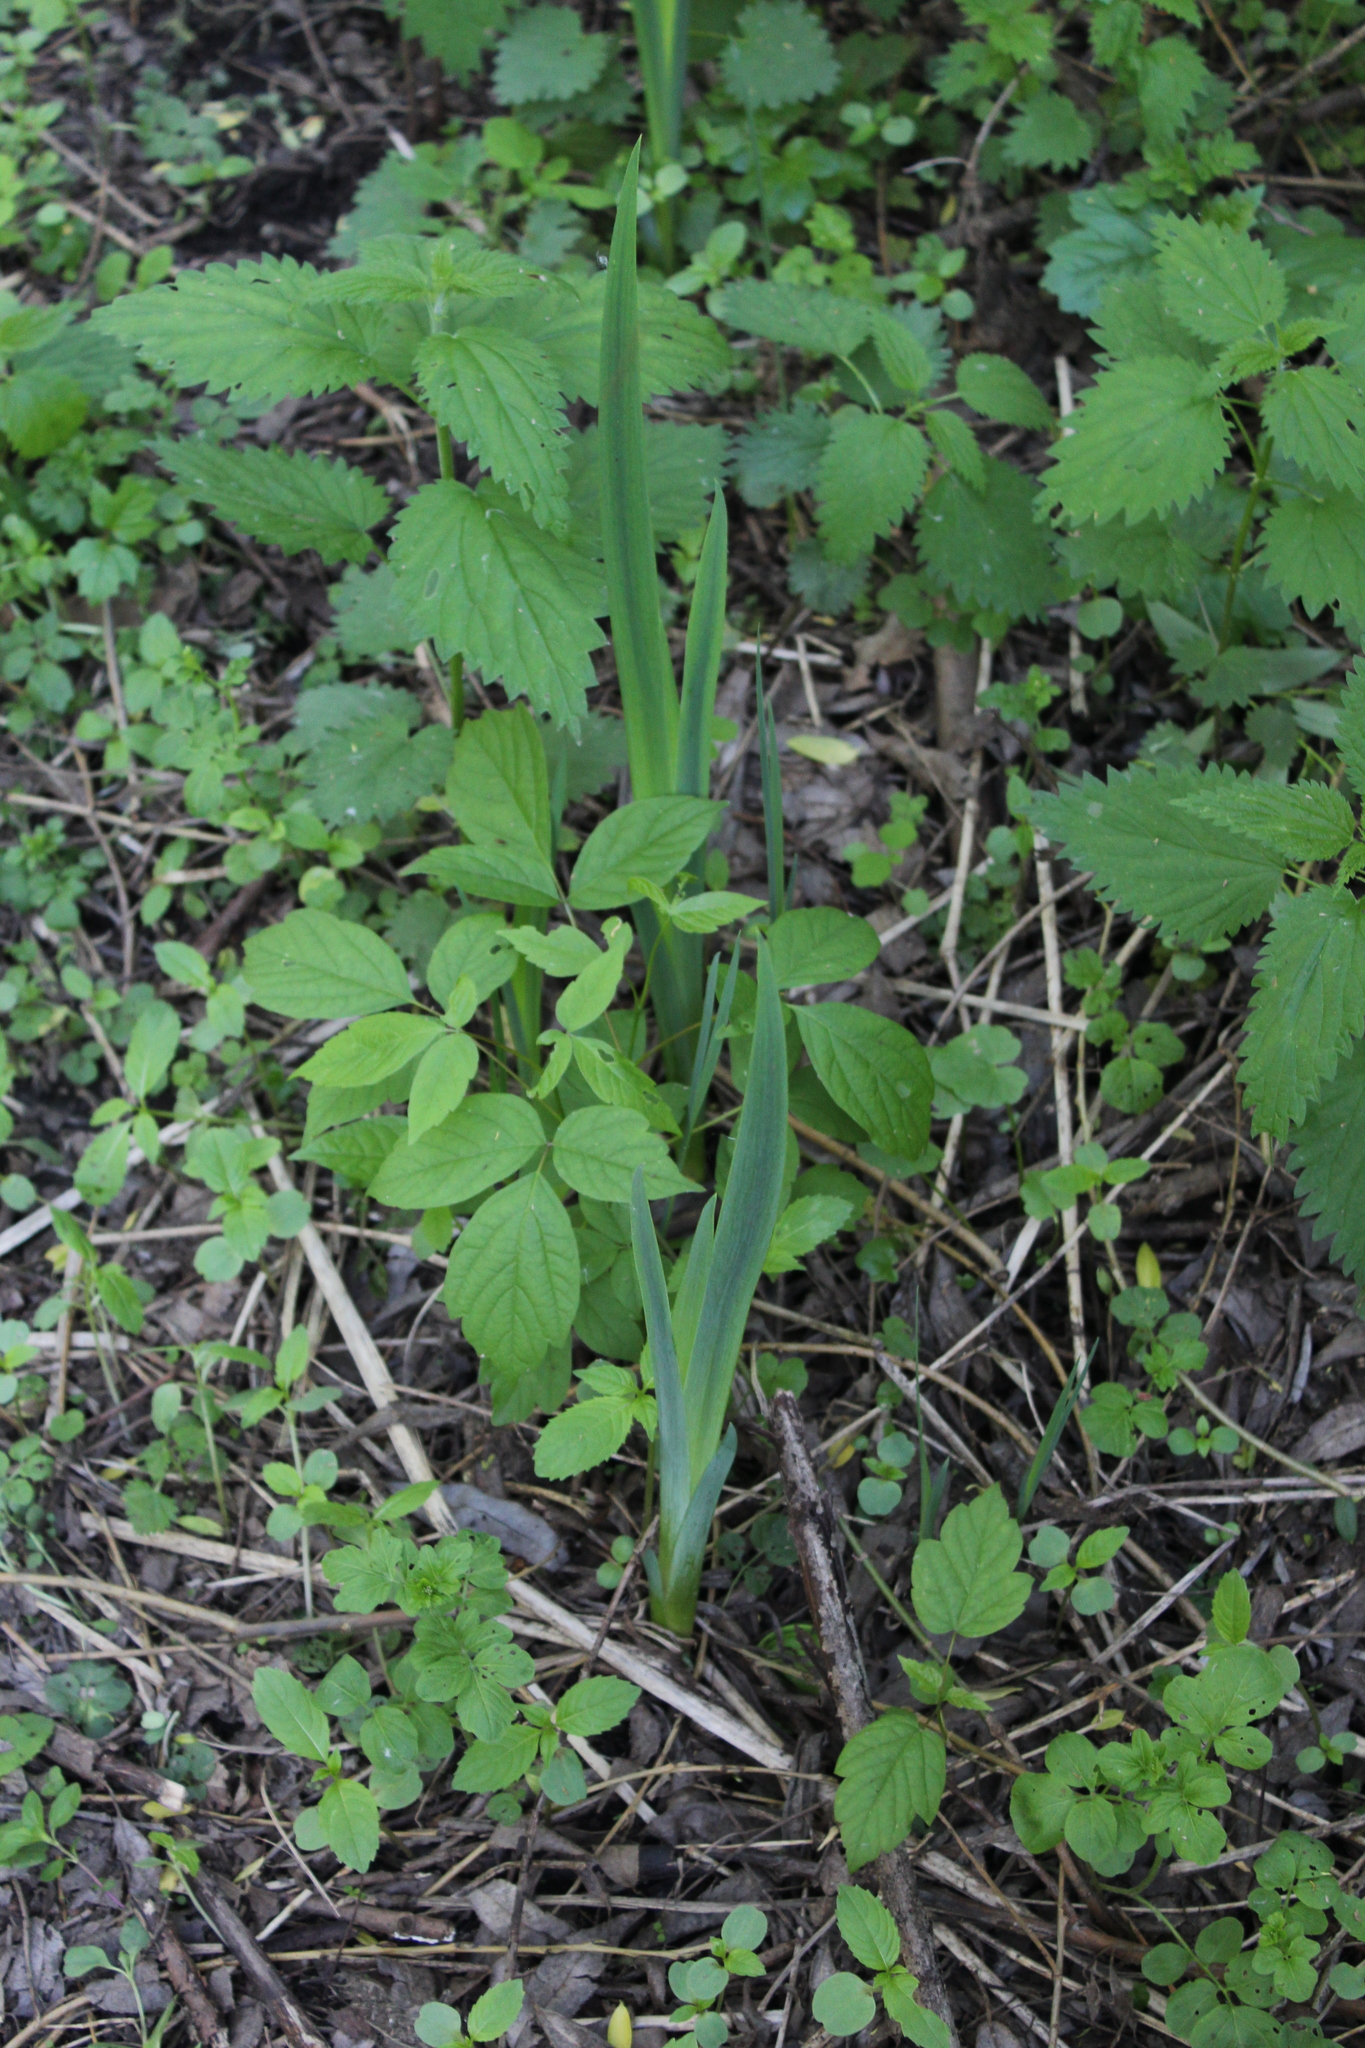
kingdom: Plantae
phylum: Tracheophyta
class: Liliopsida
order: Asparagales
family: Iridaceae
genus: Iris
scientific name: Iris pseudacorus
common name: Yellow flag
